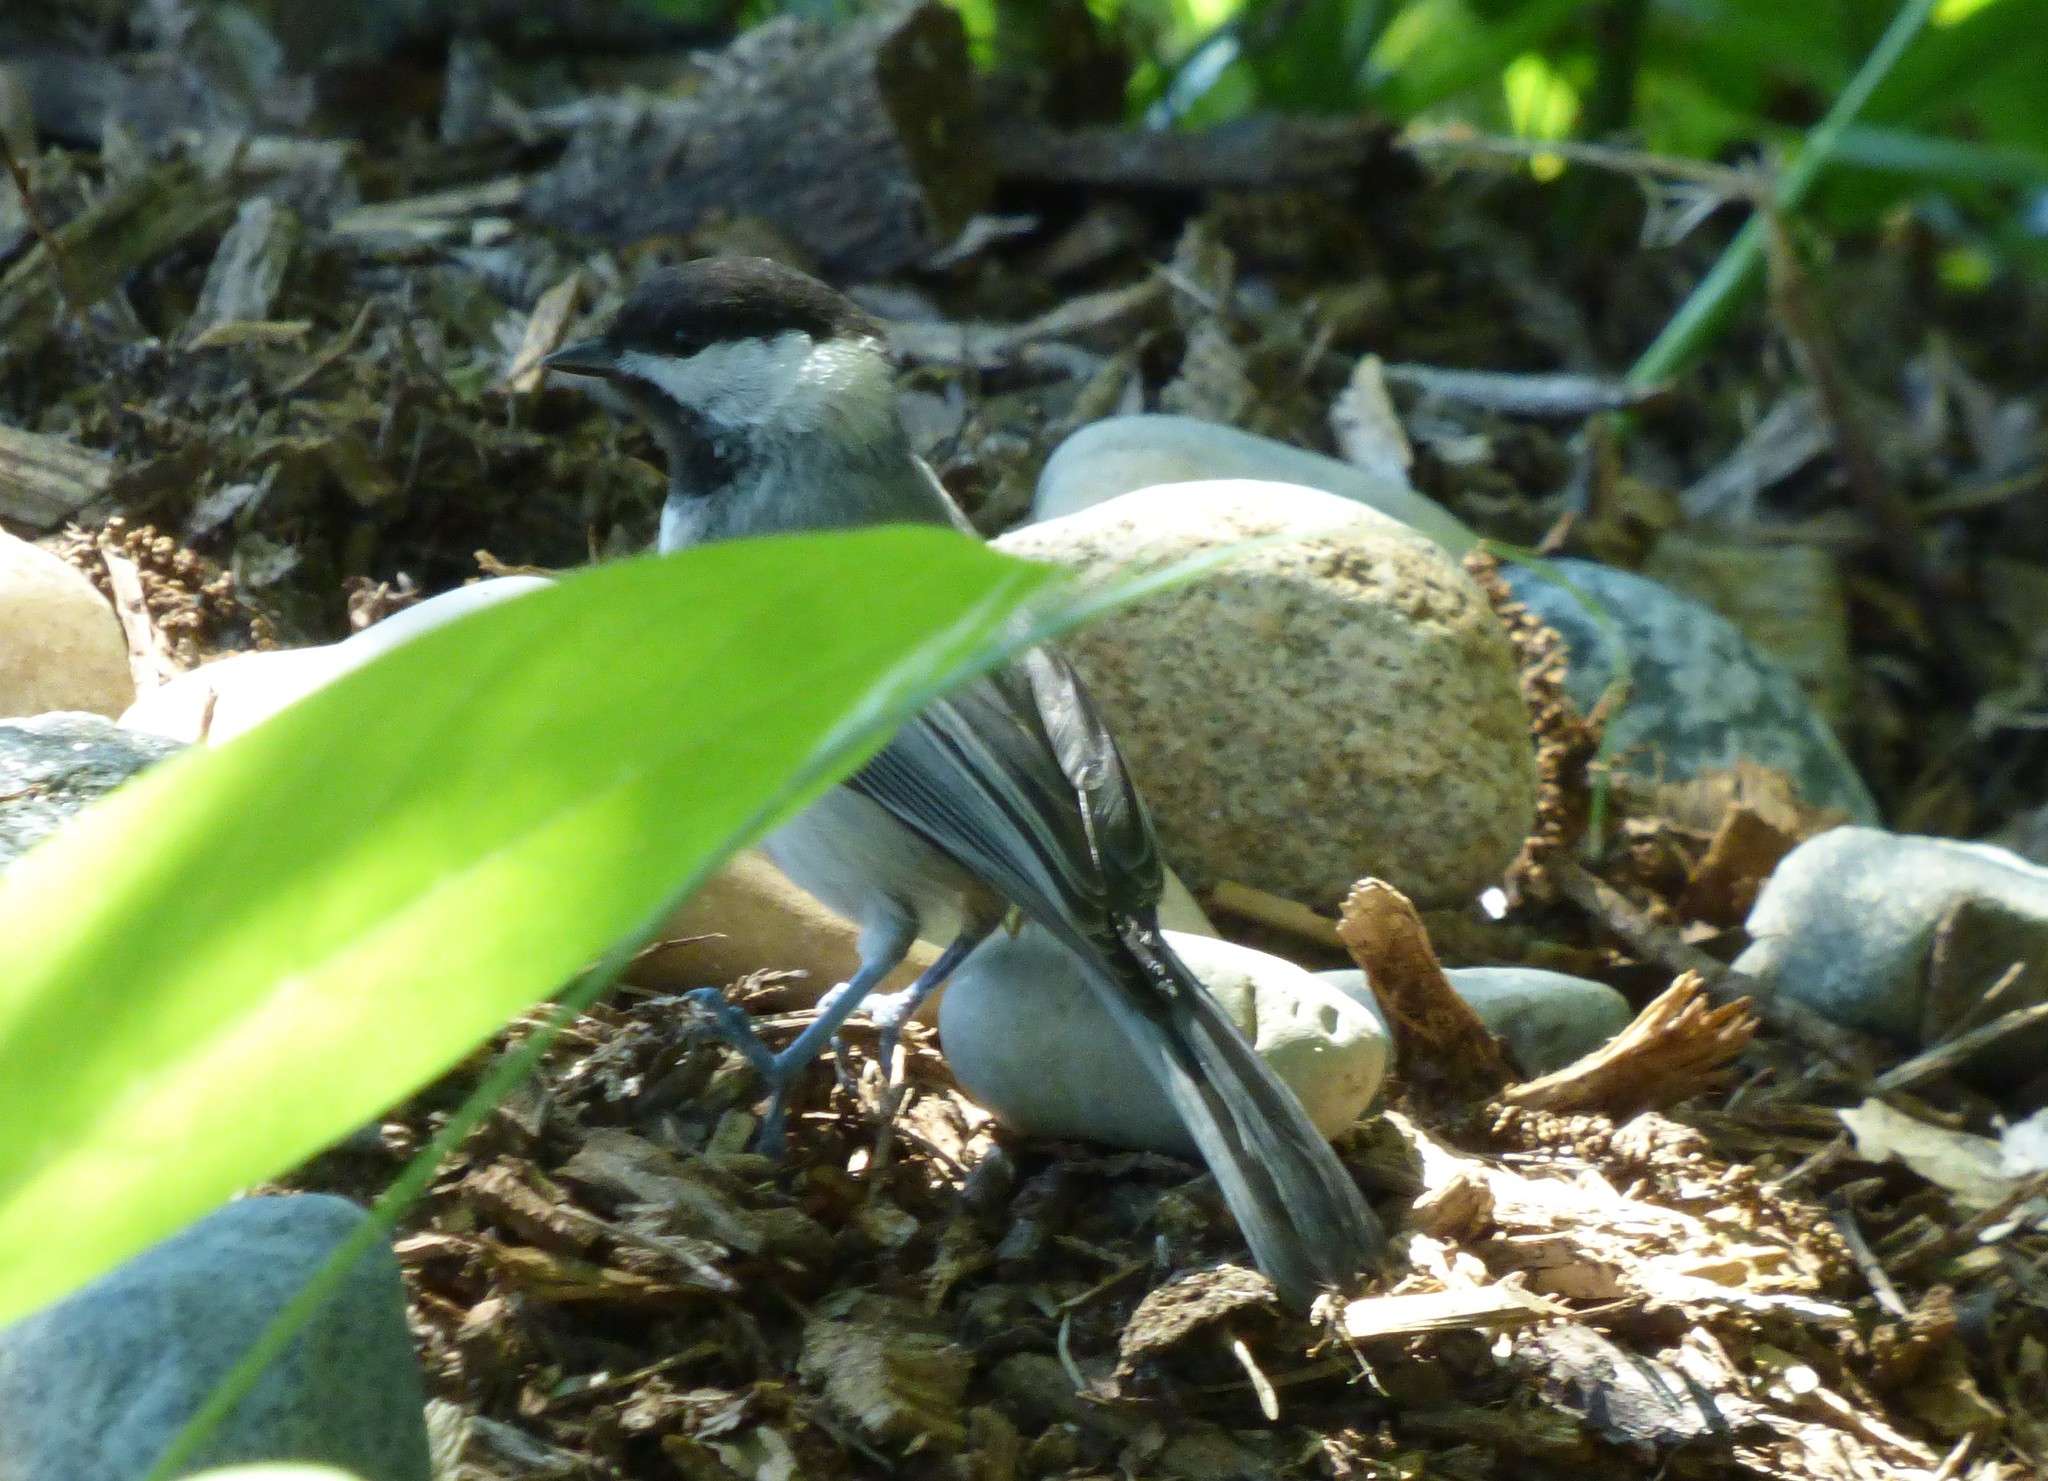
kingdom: Animalia
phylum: Chordata
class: Aves
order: Passeriformes
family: Paridae
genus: Poecile
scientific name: Poecile carolinensis
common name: Carolina chickadee
